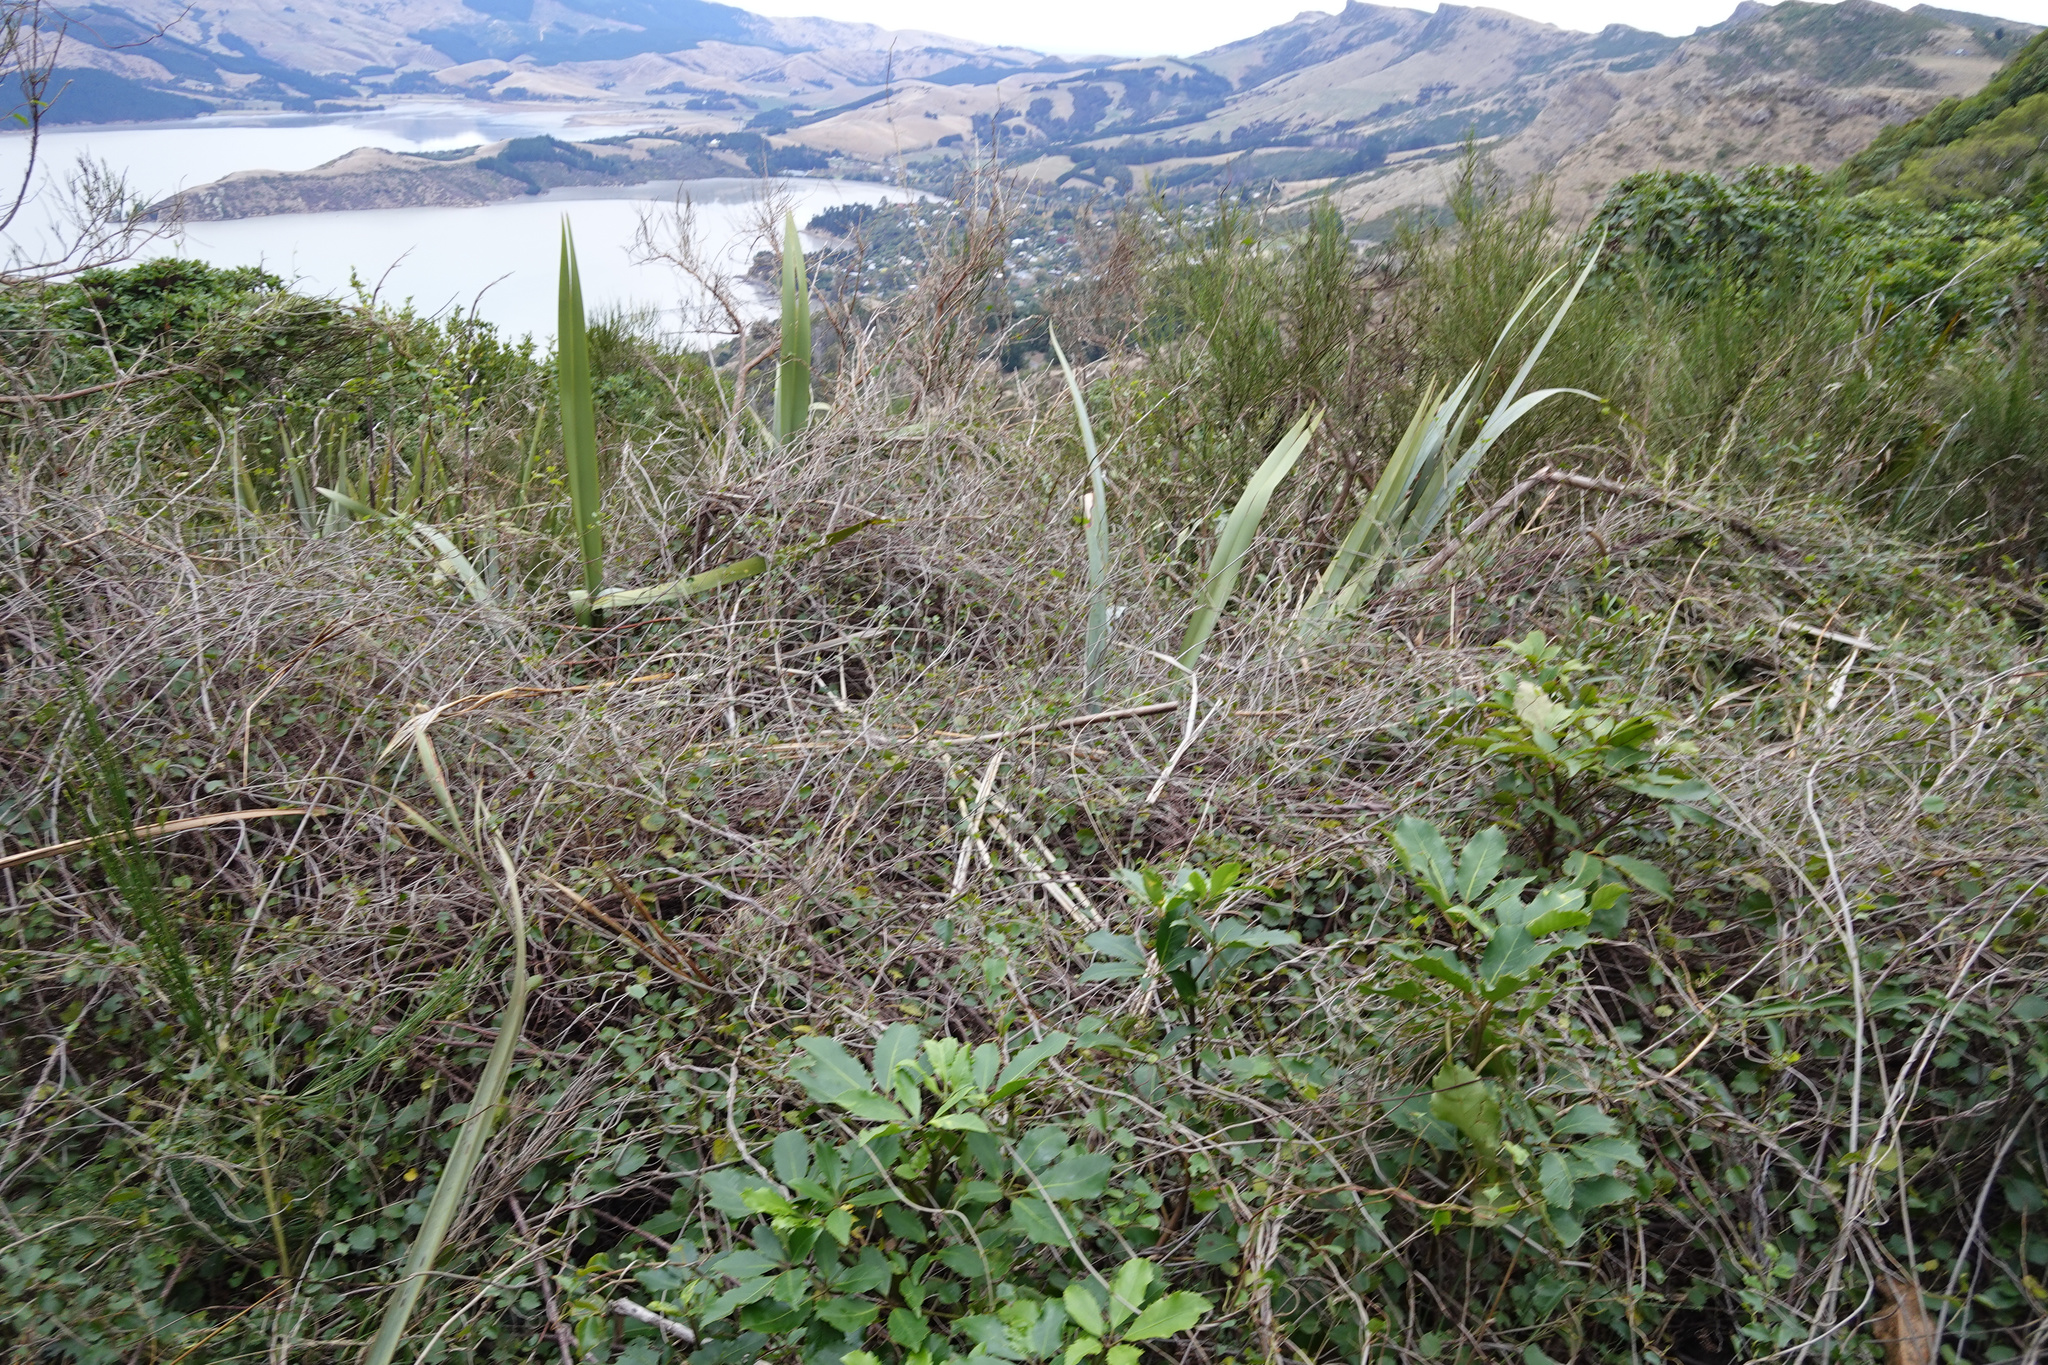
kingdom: Plantae
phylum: Tracheophyta
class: Magnoliopsida
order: Caryophyllales
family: Polygonaceae
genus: Muehlenbeckia
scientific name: Muehlenbeckia australis
